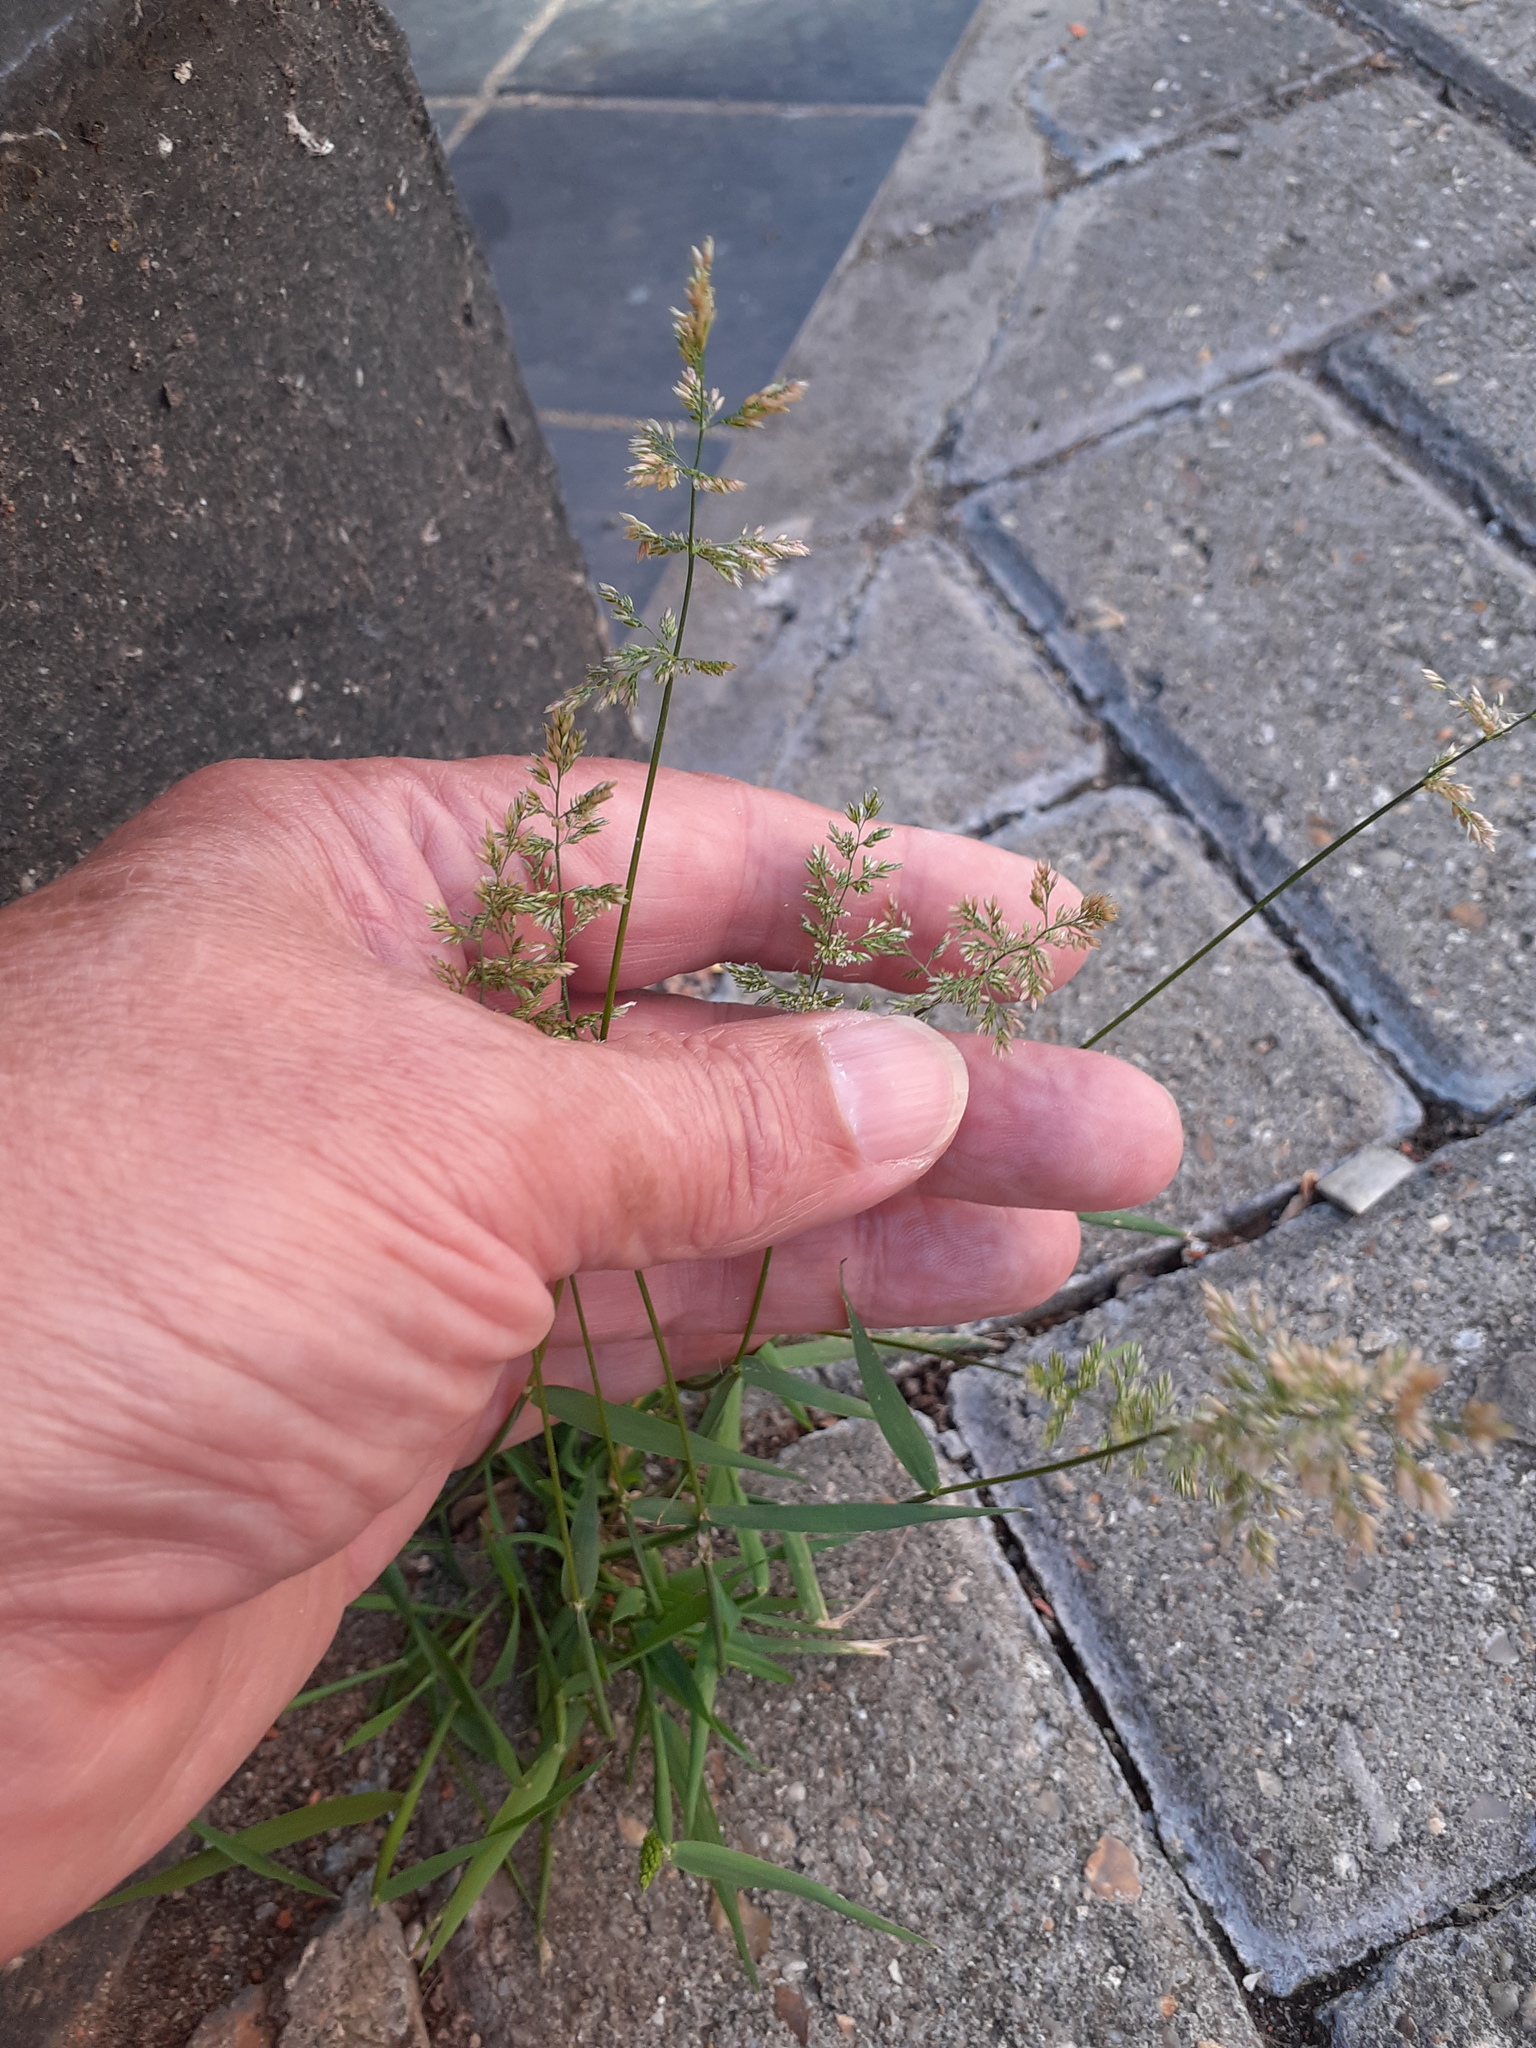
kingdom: Plantae
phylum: Tracheophyta
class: Liliopsida
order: Poales
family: Poaceae
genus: Polypogon
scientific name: Polypogon viridis
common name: Water bent
